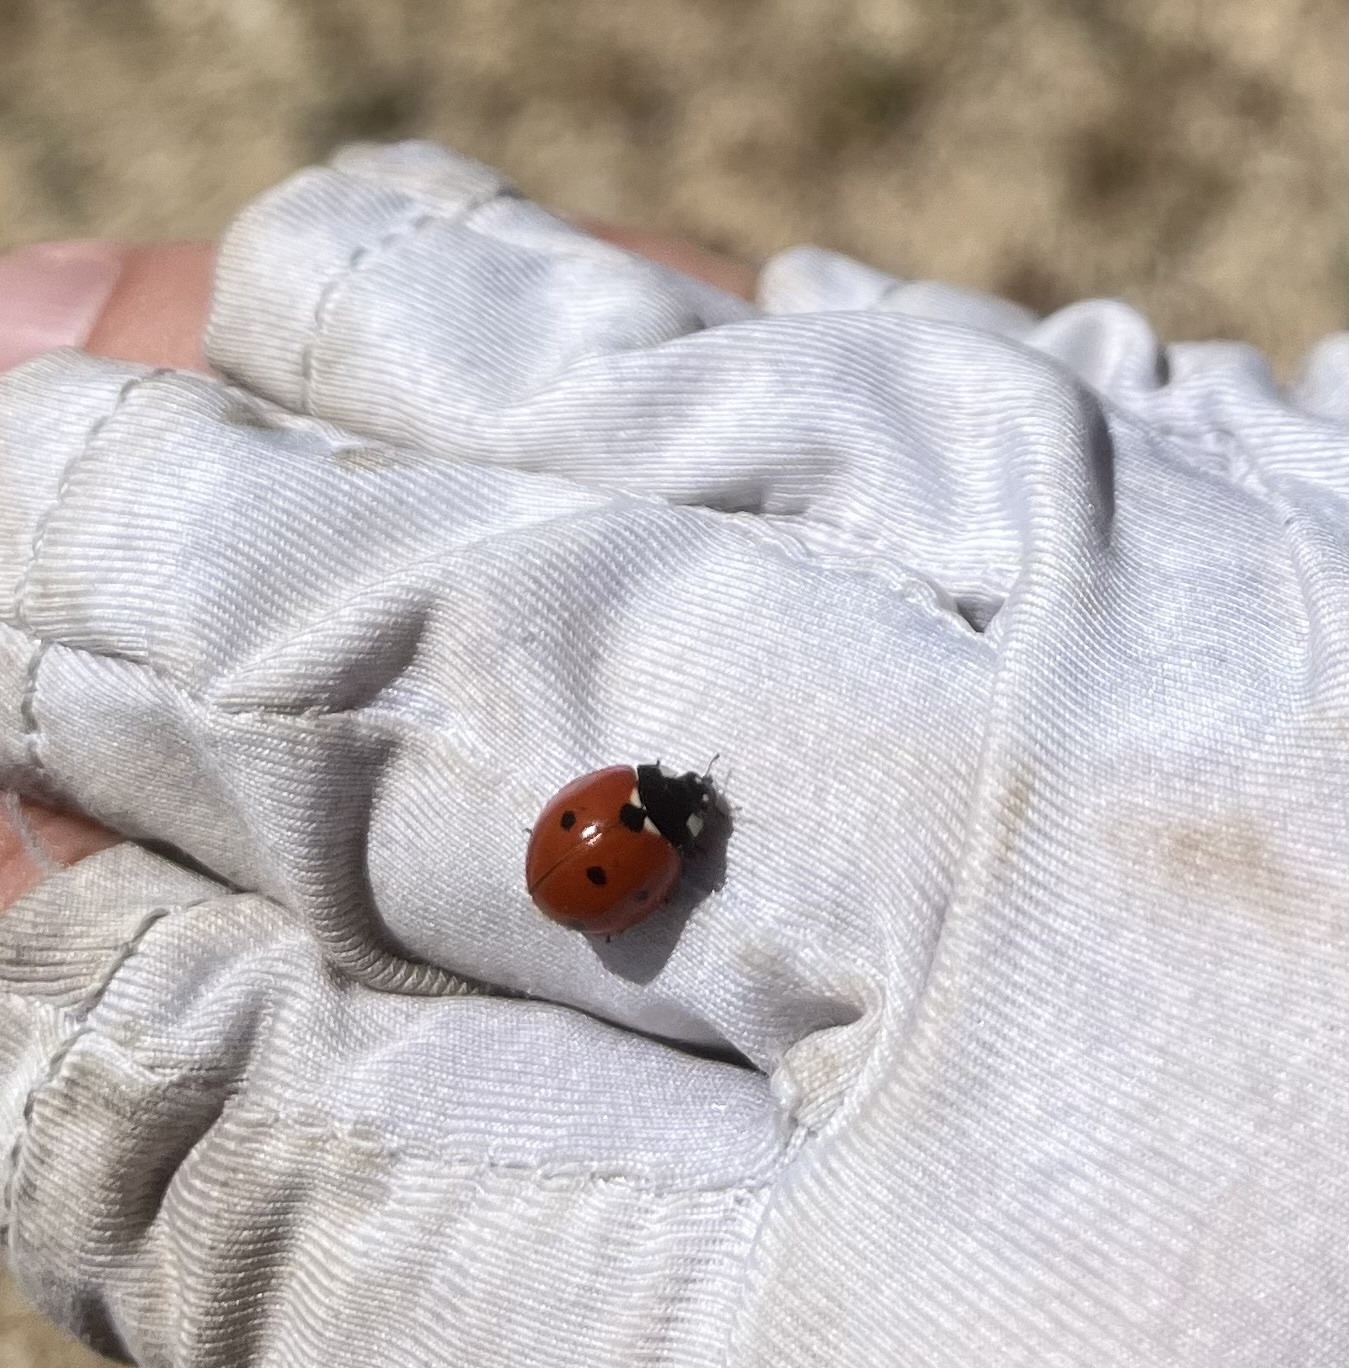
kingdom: Animalia
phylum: Arthropoda
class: Insecta
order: Coleoptera
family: Coccinellidae
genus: Coccinella
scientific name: Coccinella septempunctata
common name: Sevenspotted lady beetle
